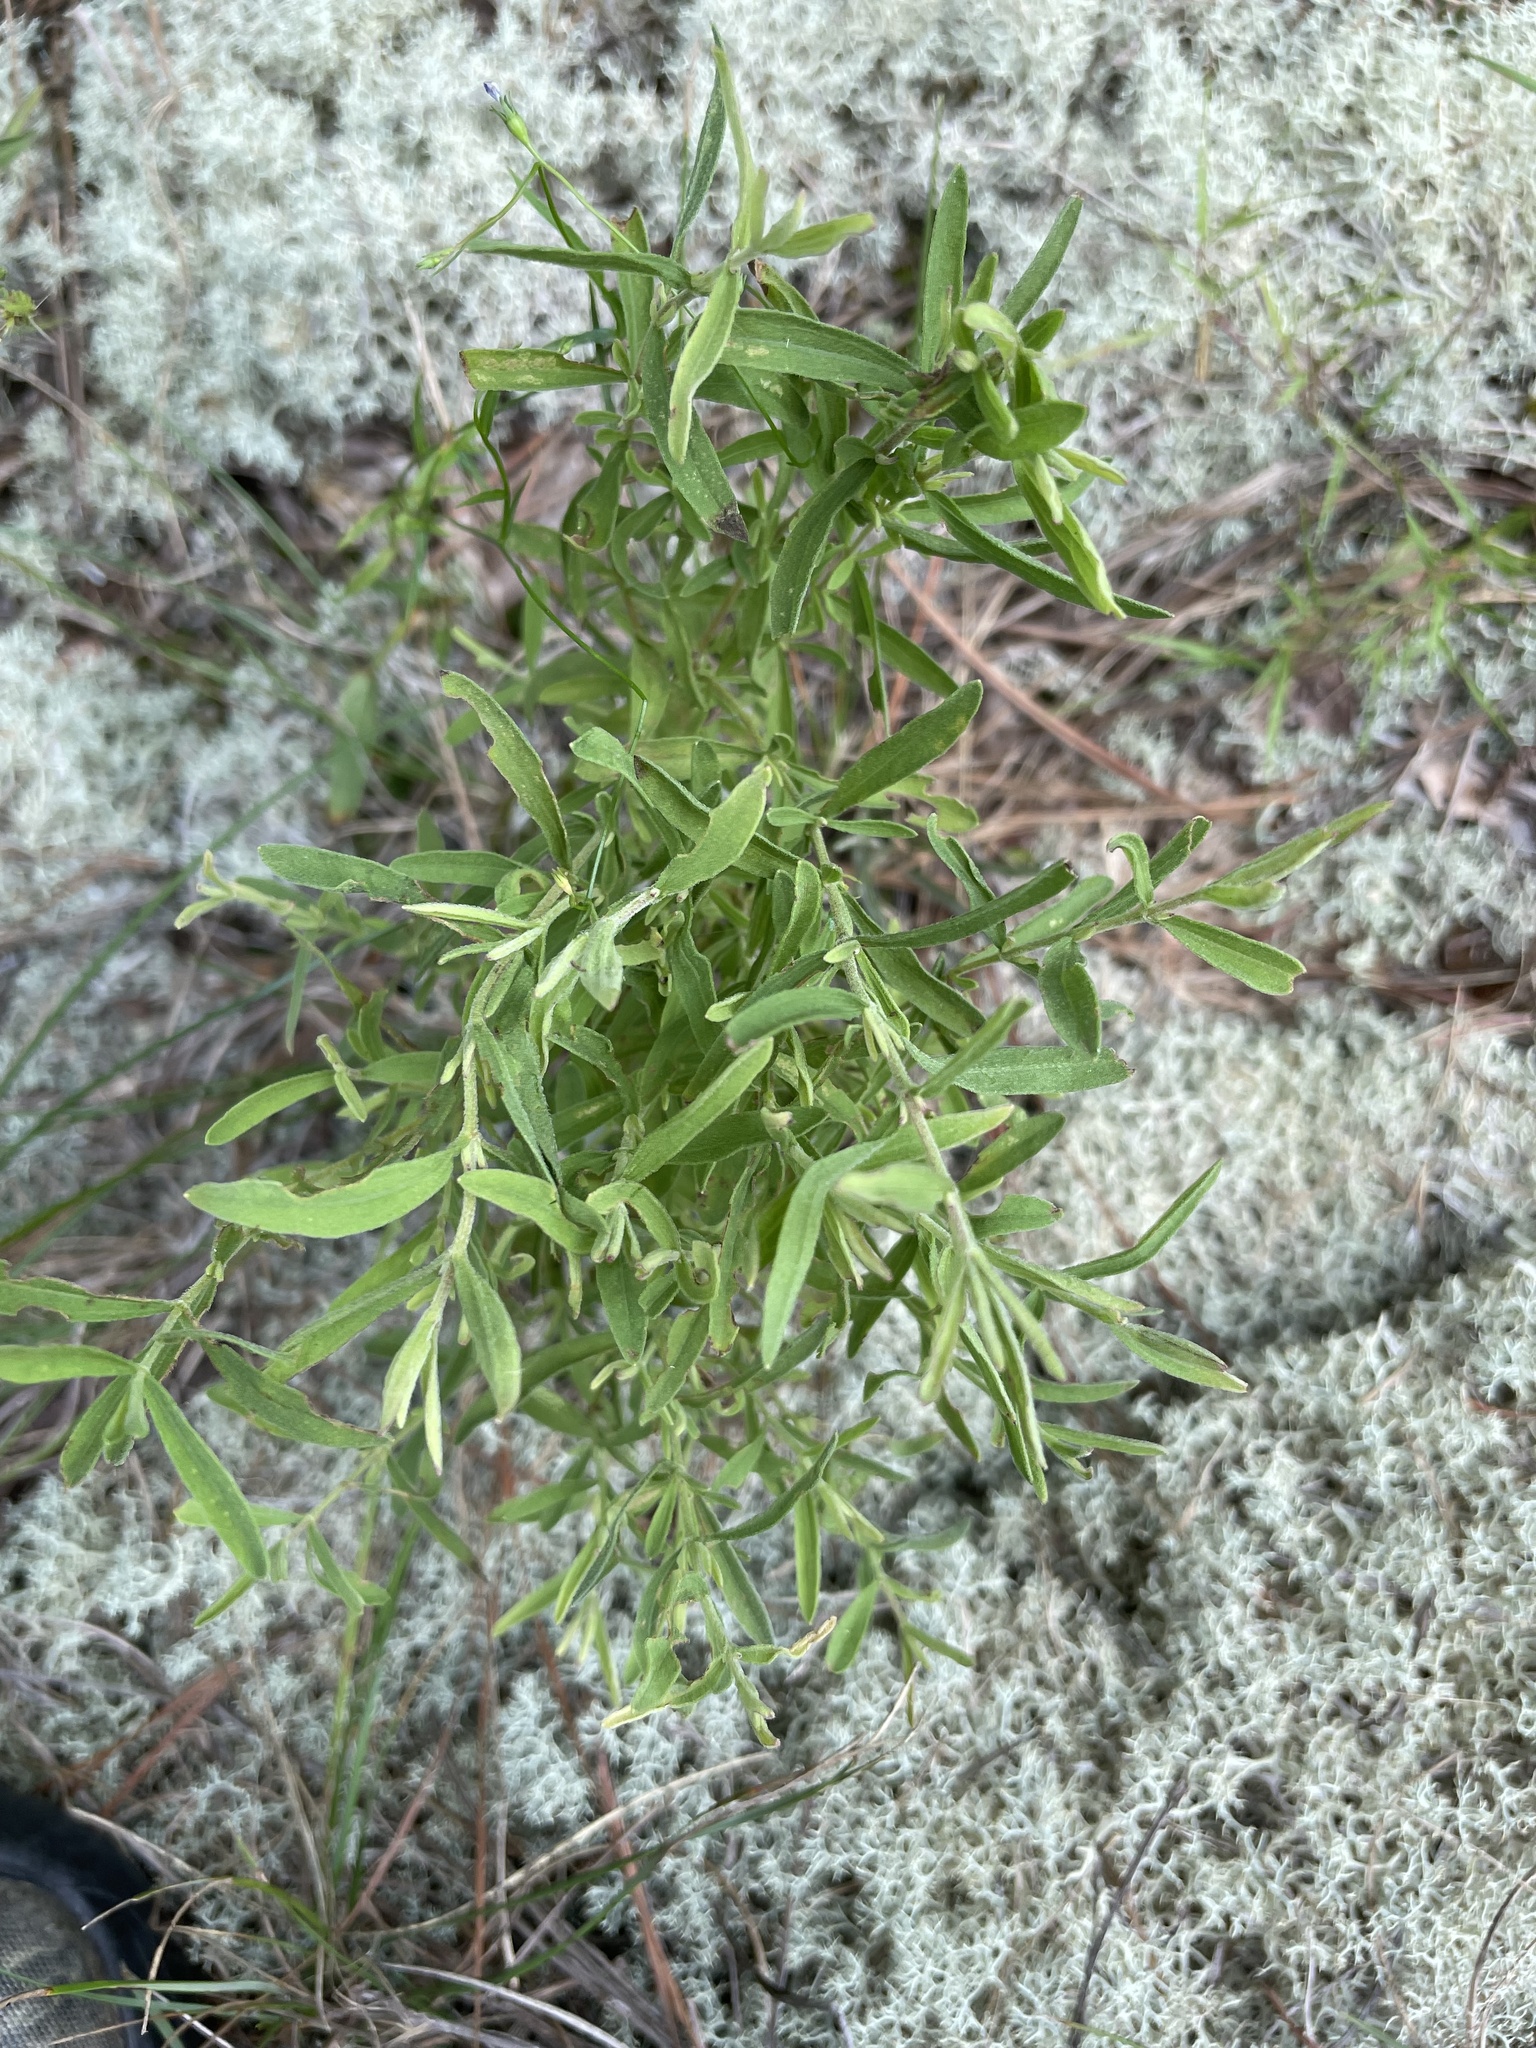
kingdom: Plantae
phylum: Tracheophyta
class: Magnoliopsida
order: Asterales
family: Asteraceae
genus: Eupatorium
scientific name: Eupatorium linearifolium
